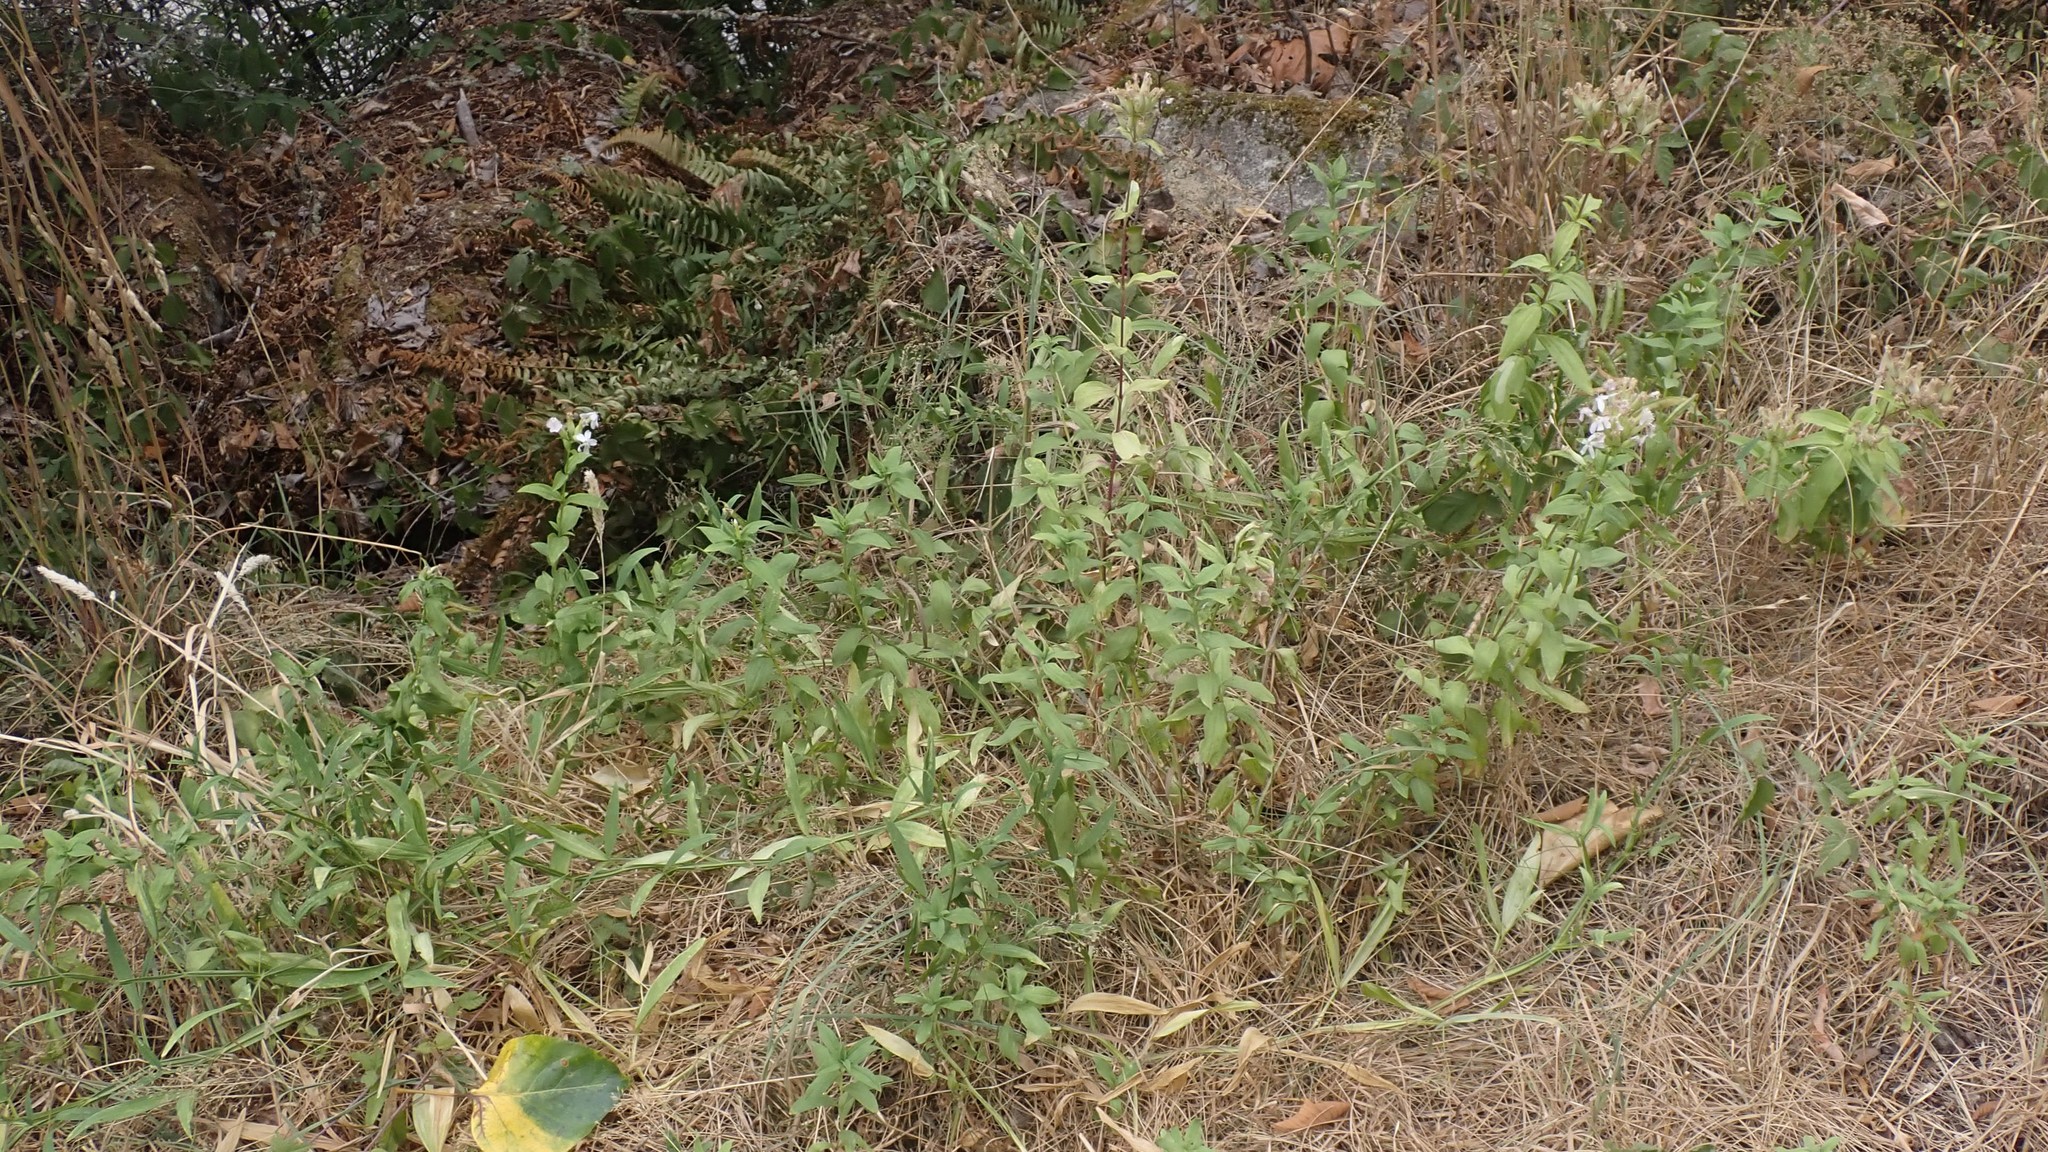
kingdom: Plantae
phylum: Tracheophyta
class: Magnoliopsida
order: Caryophyllales
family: Caryophyllaceae
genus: Saponaria
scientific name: Saponaria officinalis
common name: Soapwort
